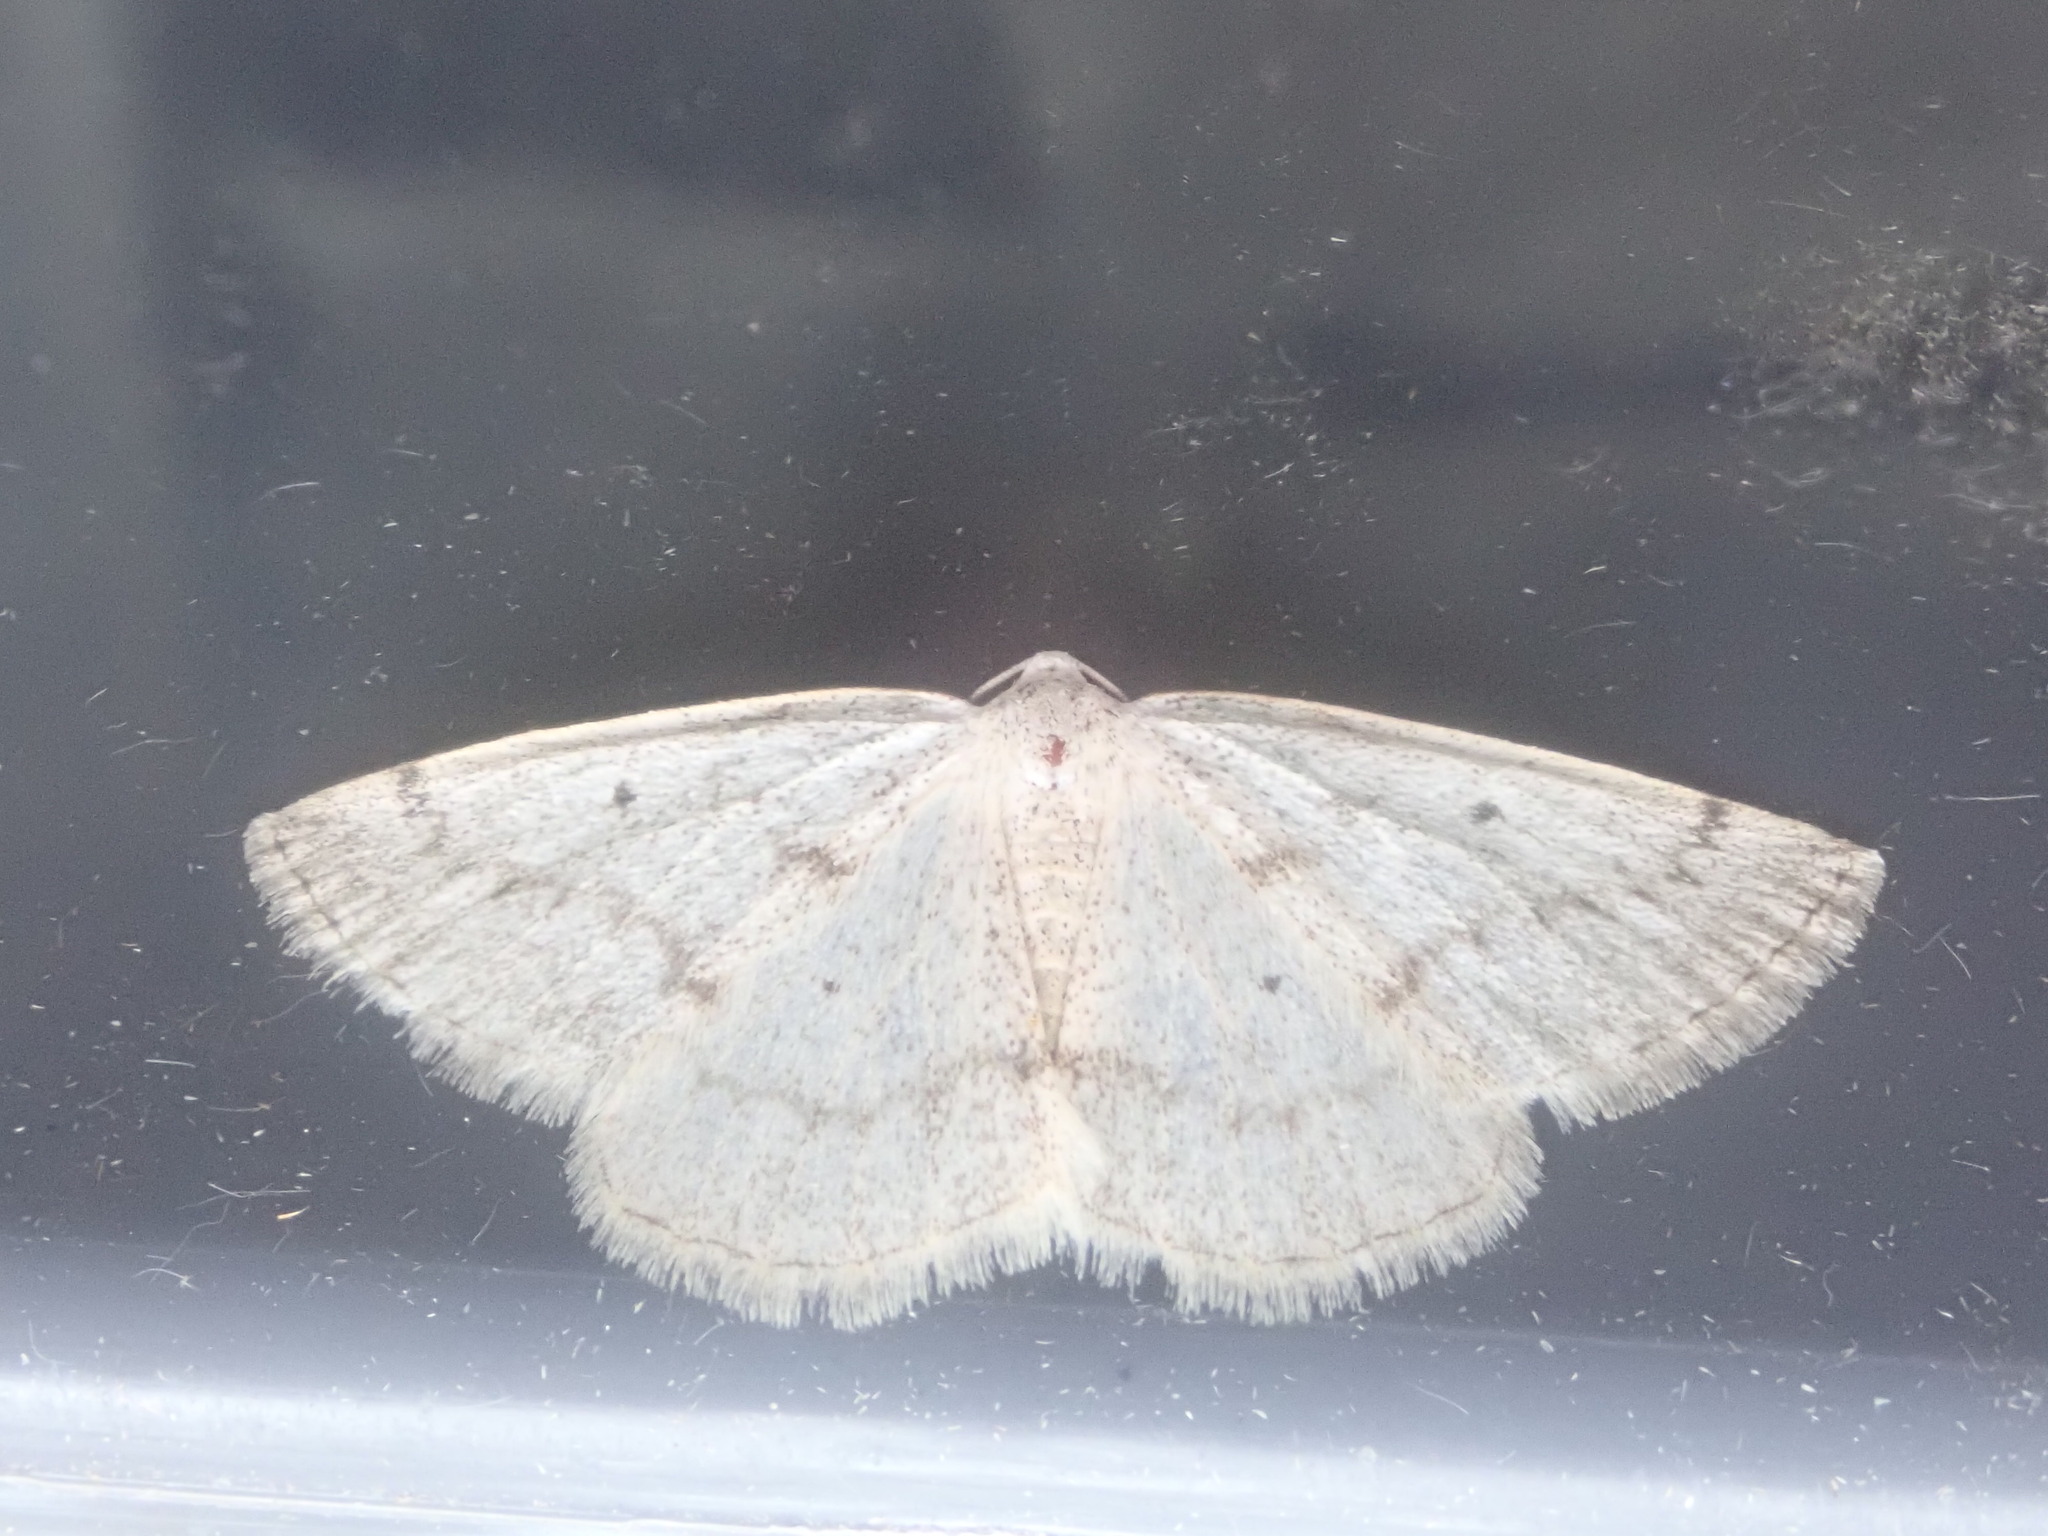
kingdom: Animalia
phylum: Arthropoda
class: Insecta
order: Lepidoptera
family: Geometridae
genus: Lomographa
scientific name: Lomographa glomeraria
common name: Gray spring moth
